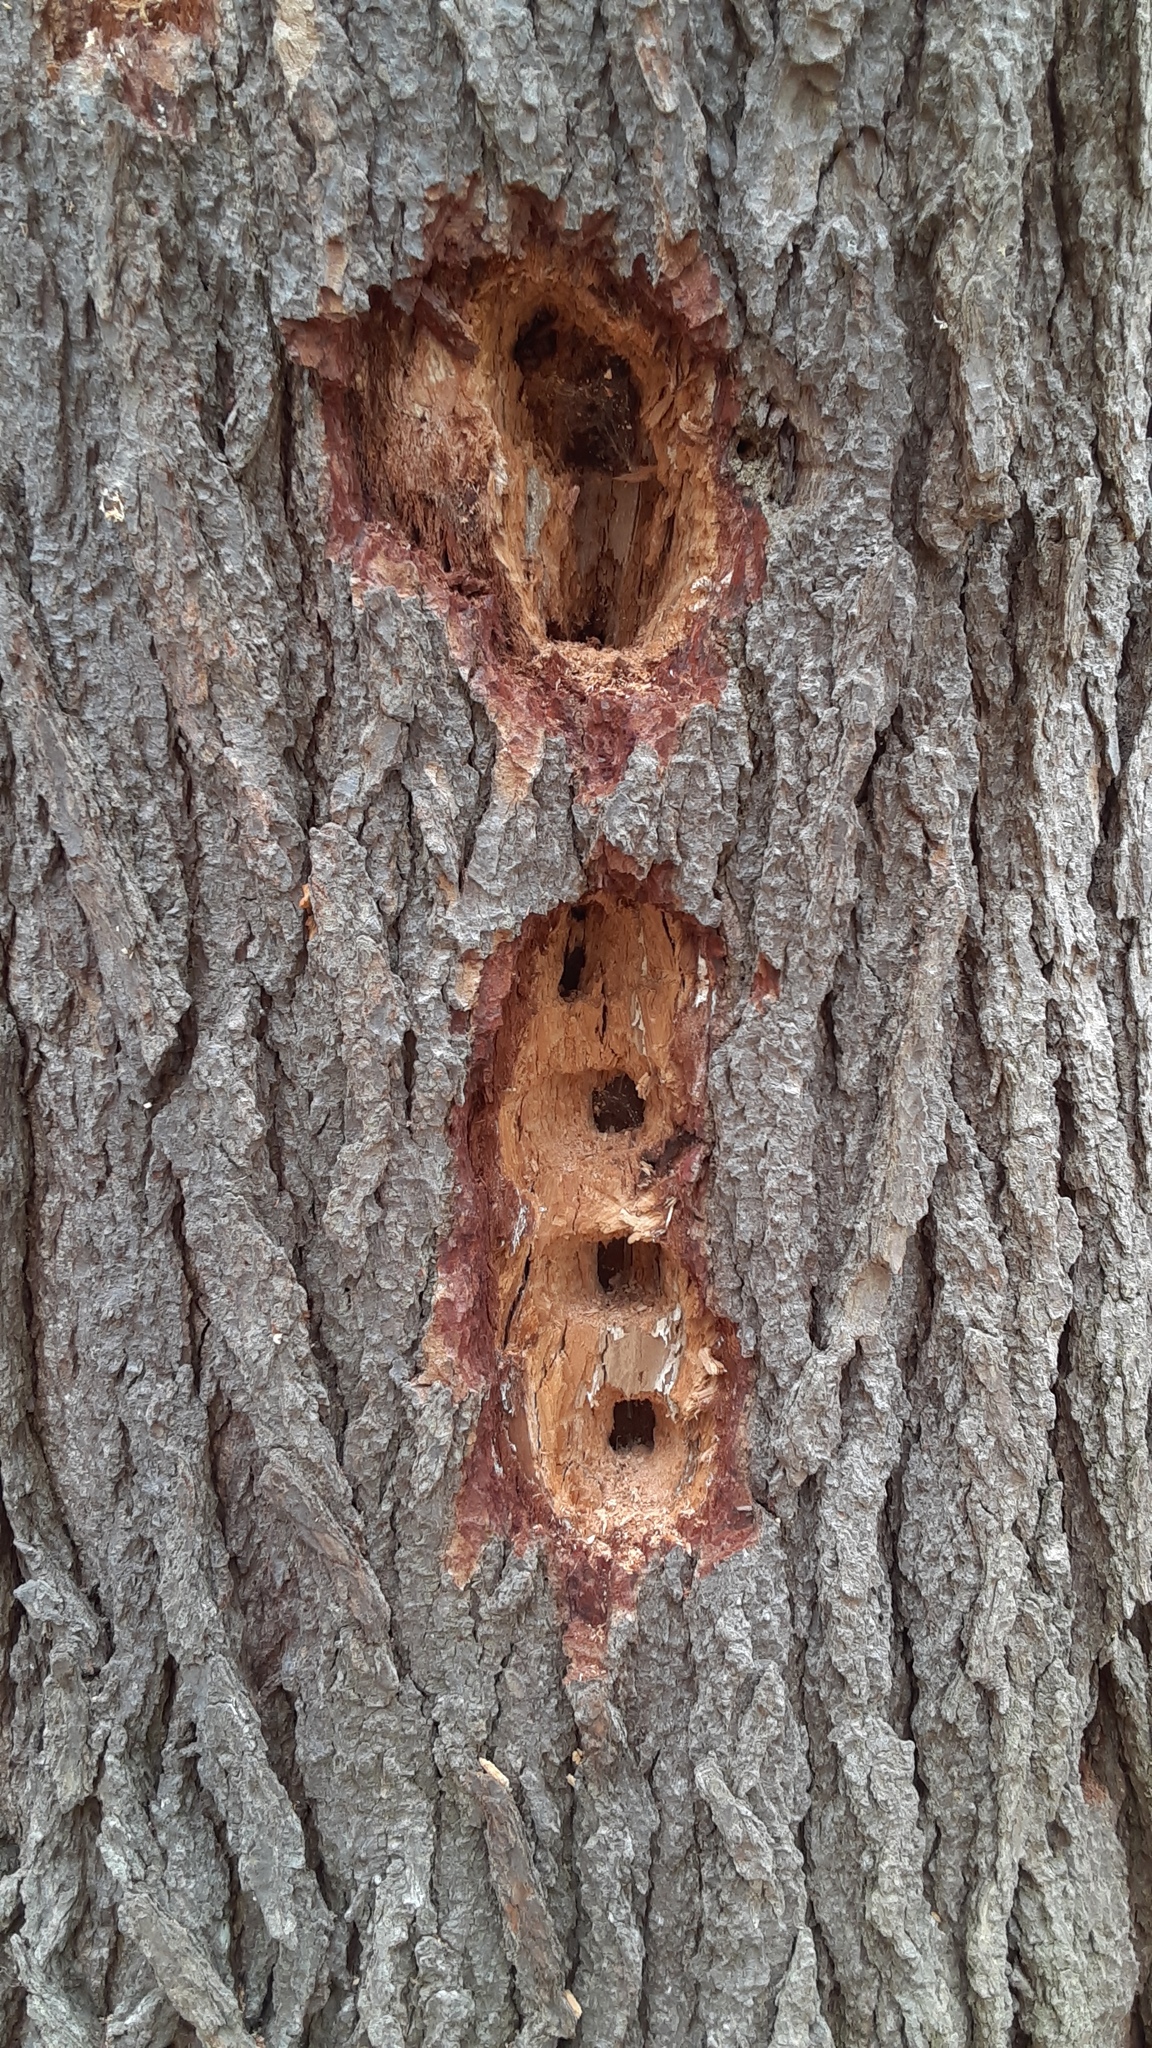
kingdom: Animalia
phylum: Chordata
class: Aves
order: Piciformes
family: Picidae
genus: Dryocopus
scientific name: Dryocopus pileatus
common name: Pileated woodpecker
